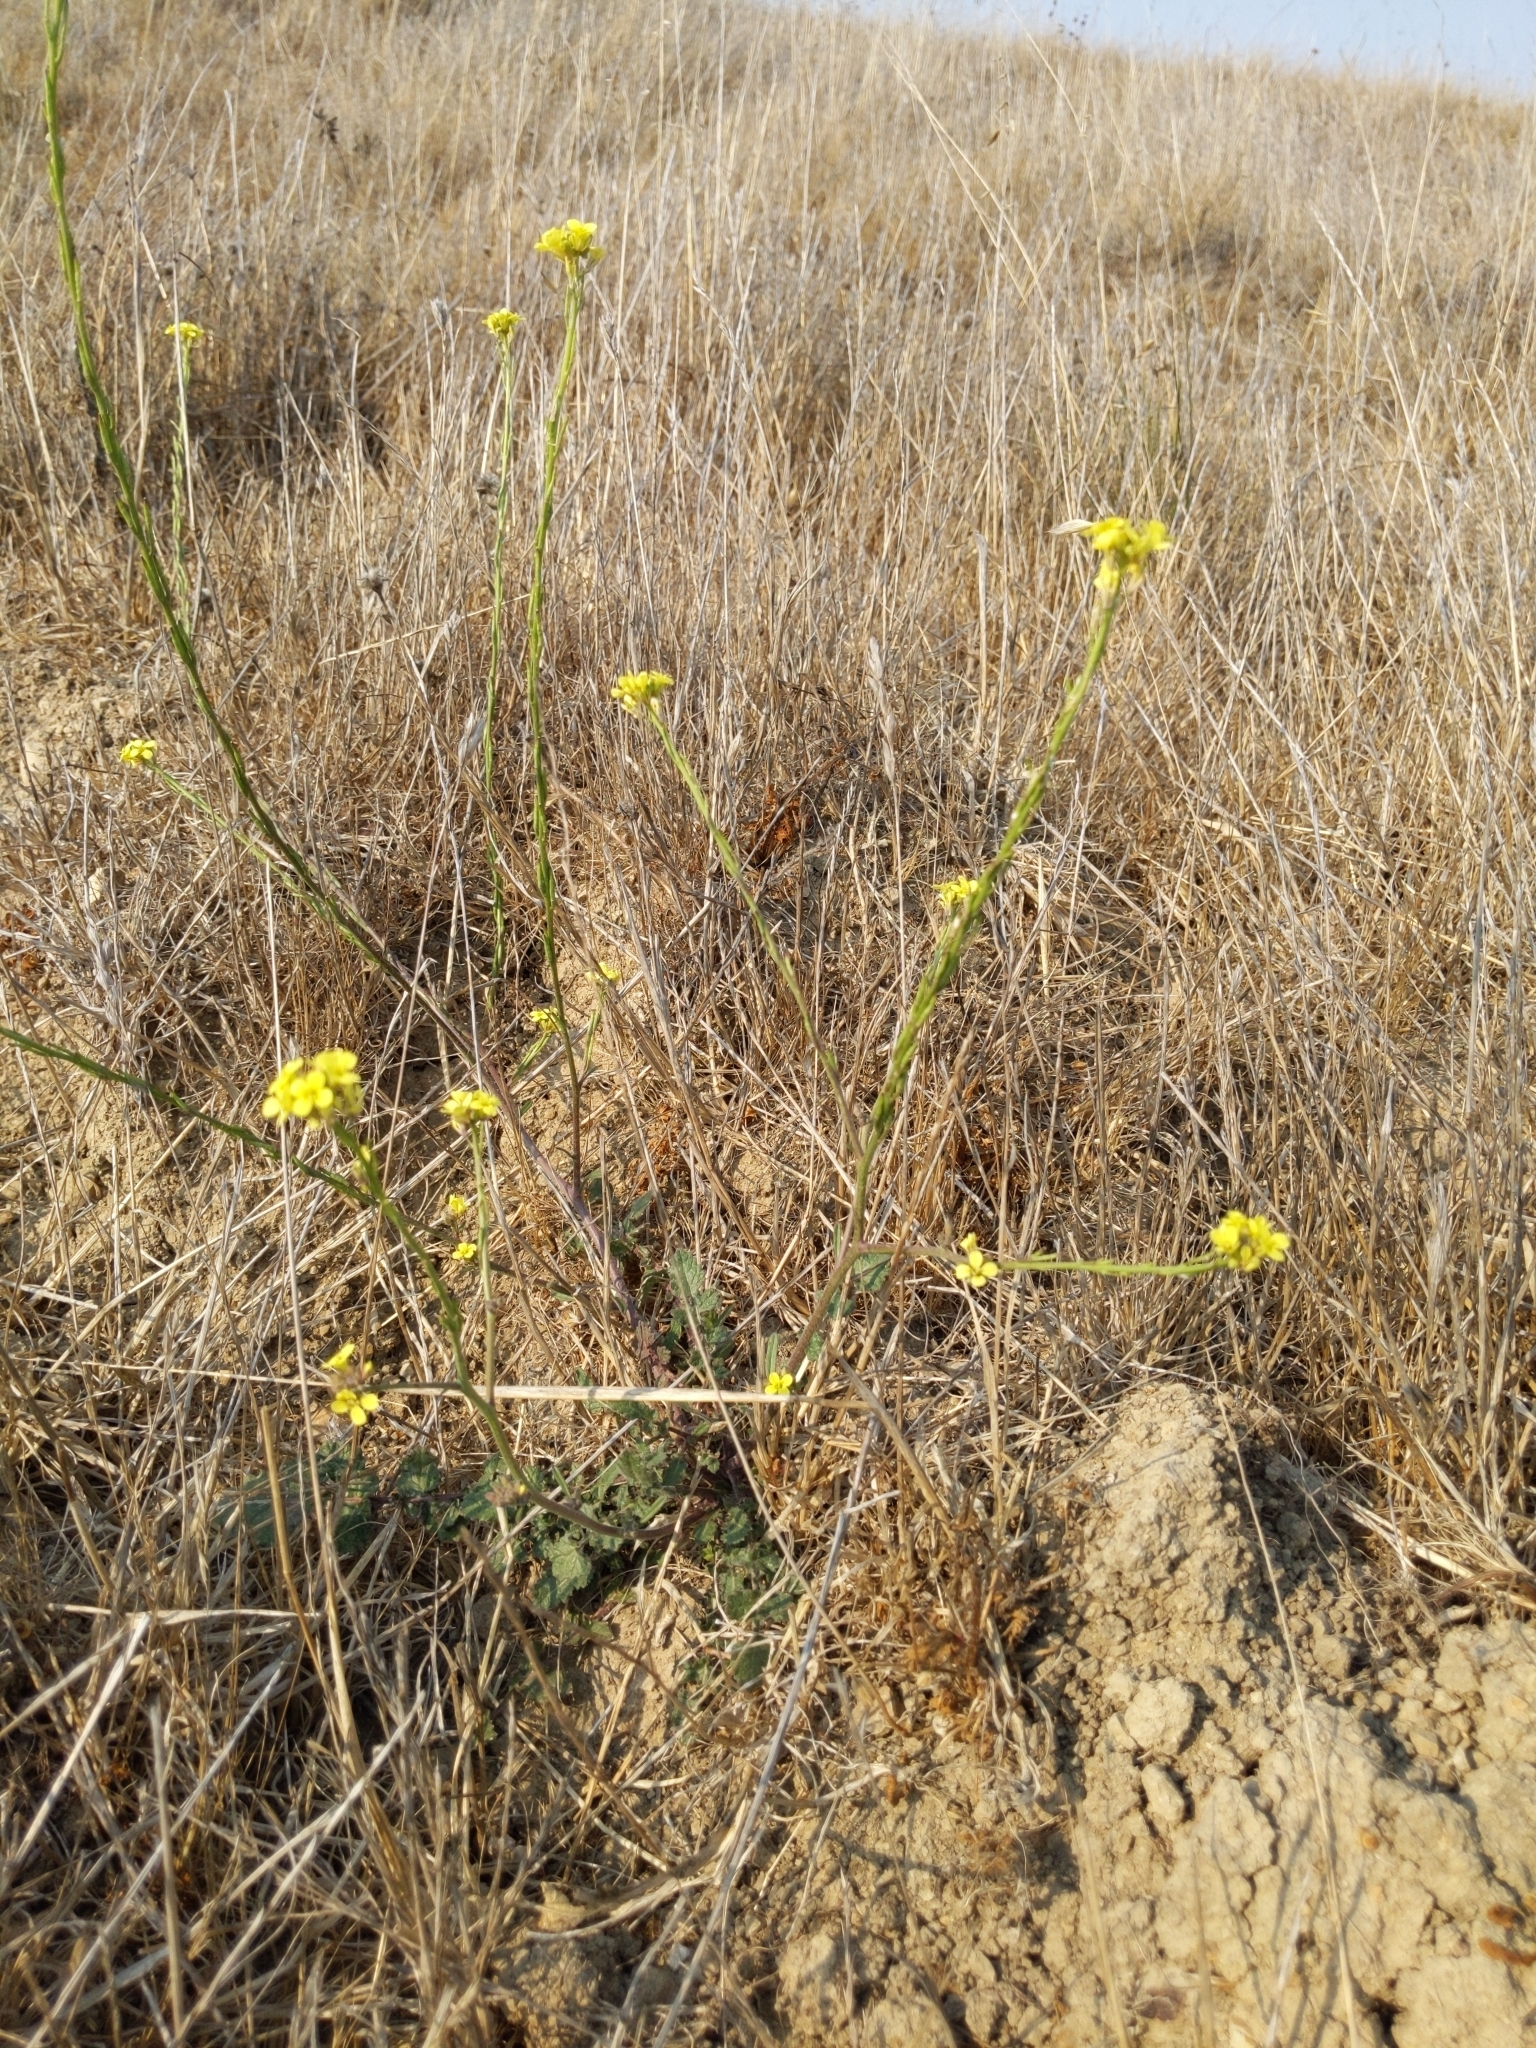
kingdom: Plantae
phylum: Tracheophyta
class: Magnoliopsida
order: Brassicales
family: Brassicaceae
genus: Hirschfeldia
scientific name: Hirschfeldia incana
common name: Hoary mustard
